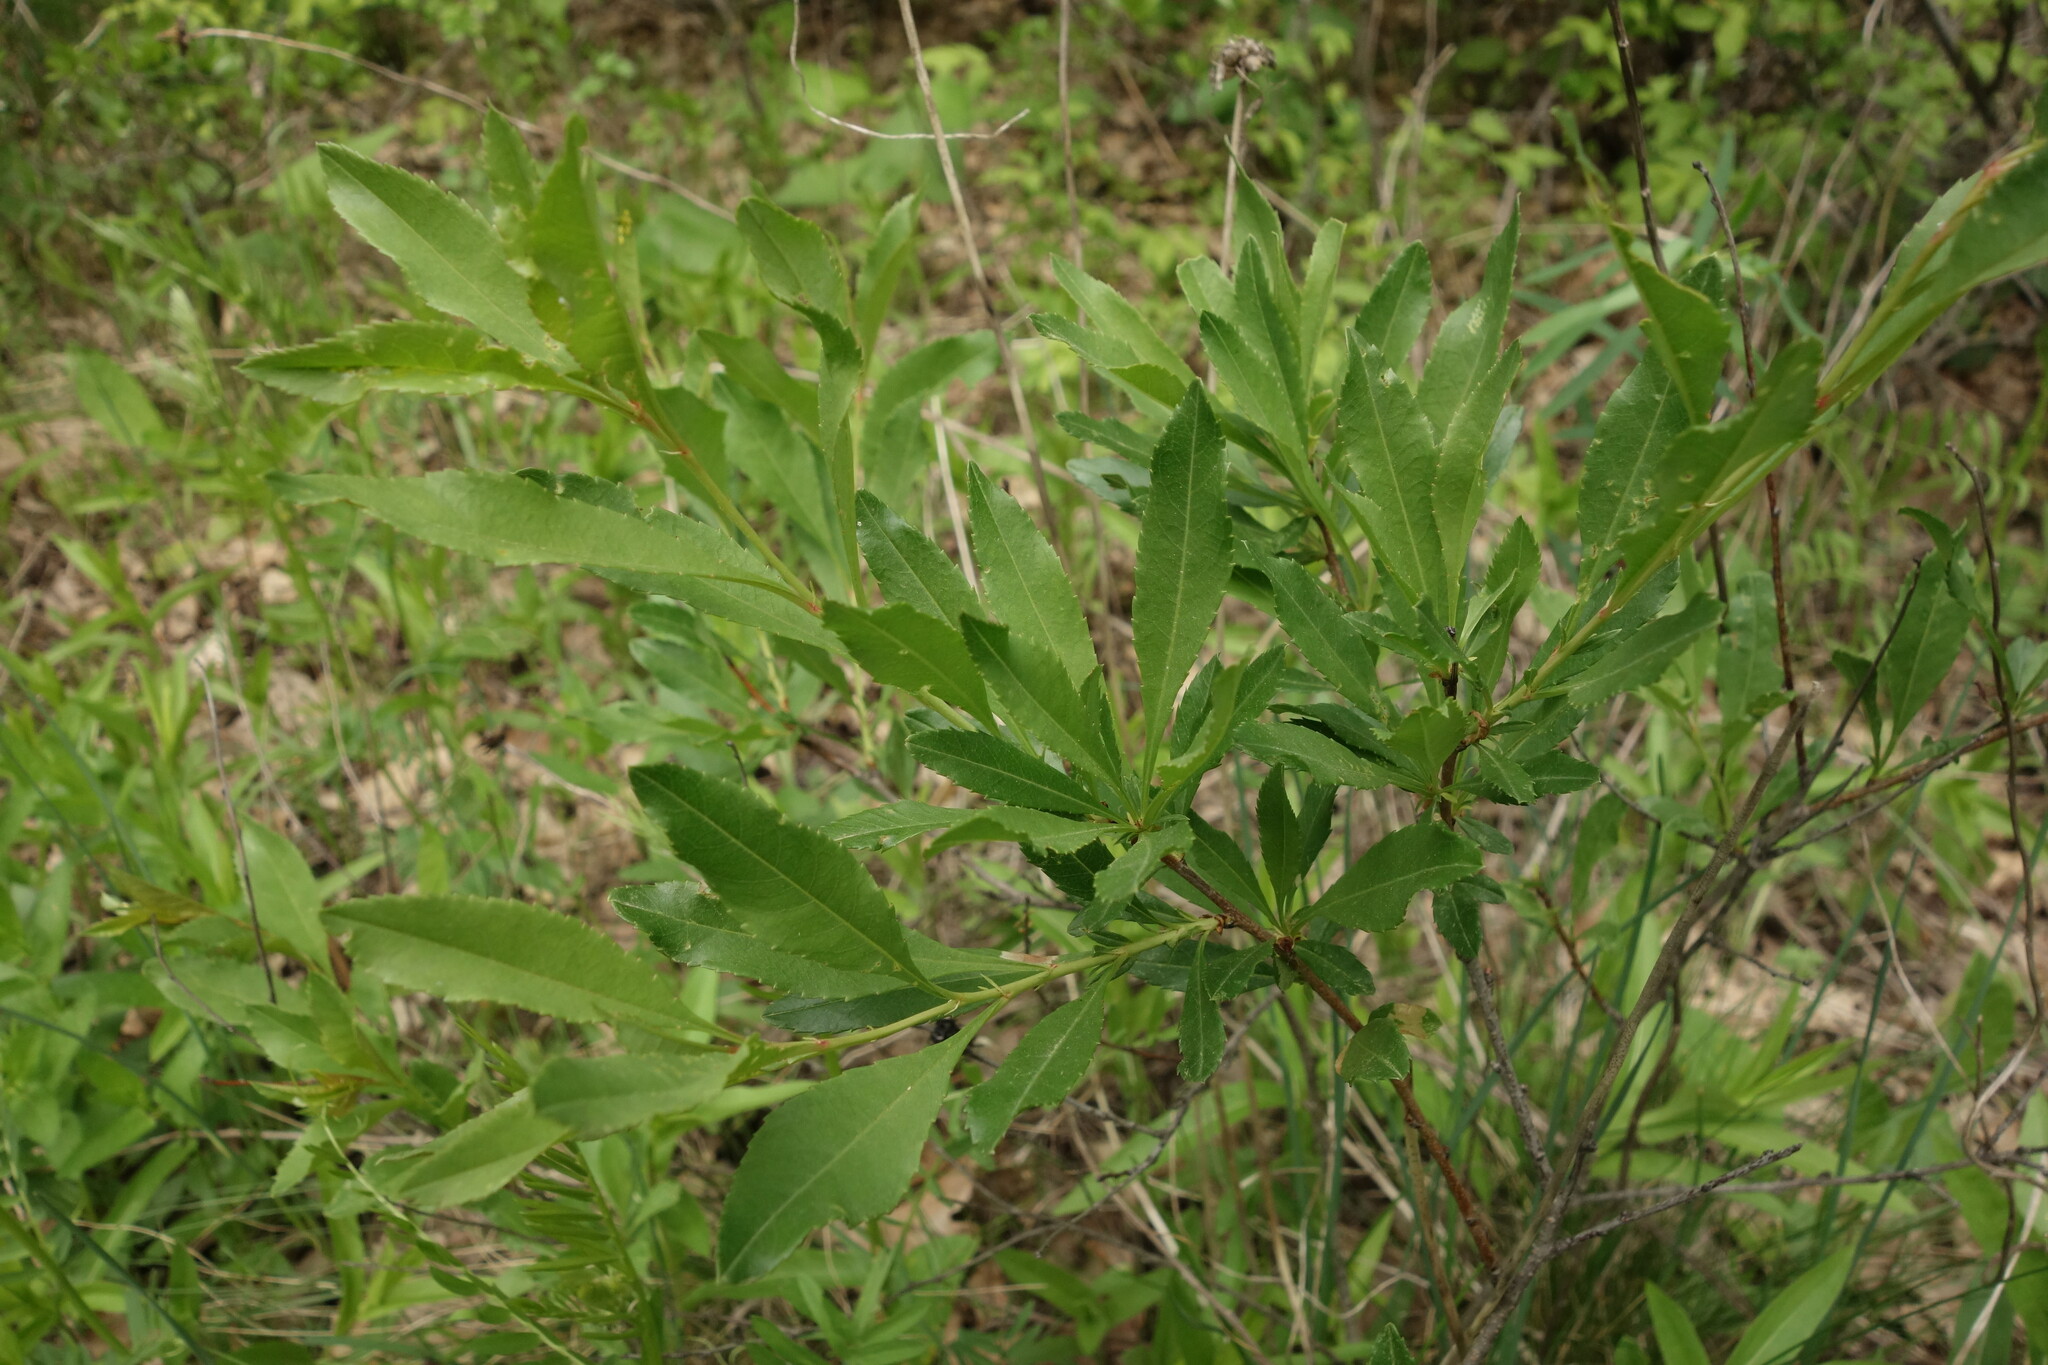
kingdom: Plantae
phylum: Tracheophyta
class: Magnoliopsida
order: Rosales
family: Rosaceae
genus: Prunus
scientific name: Prunus tenella
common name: Dwarf russian almond
